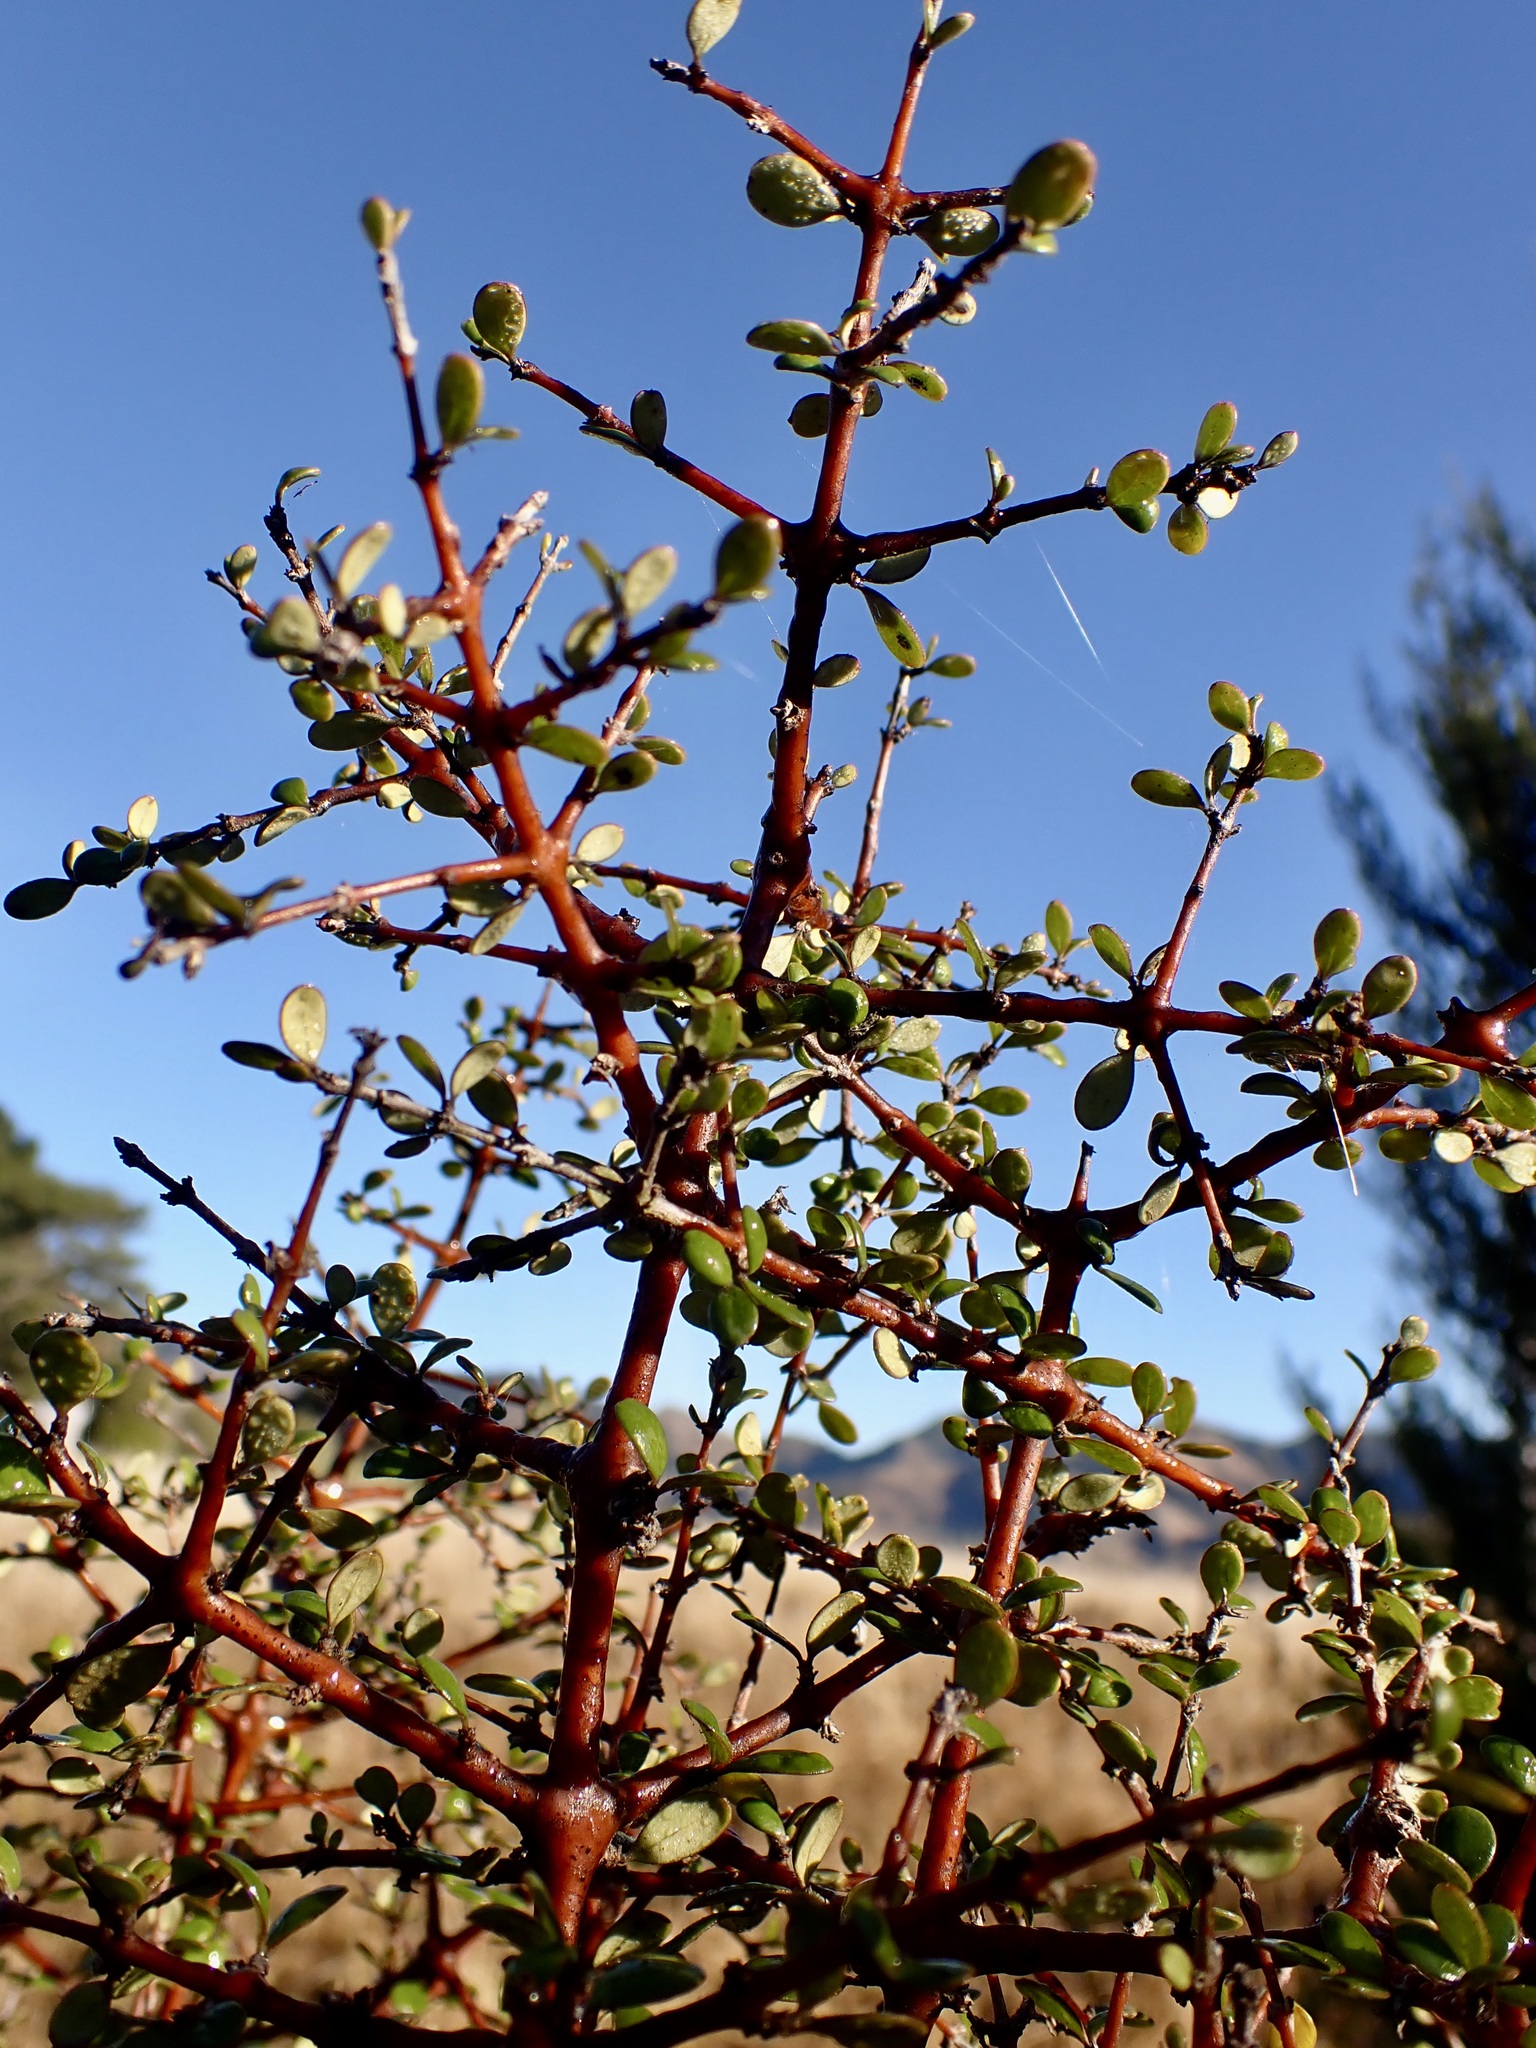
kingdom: Plantae
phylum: Tracheophyta
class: Magnoliopsida
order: Gentianales
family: Rubiaceae
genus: Coprosma
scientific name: Coprosma crassifolia
